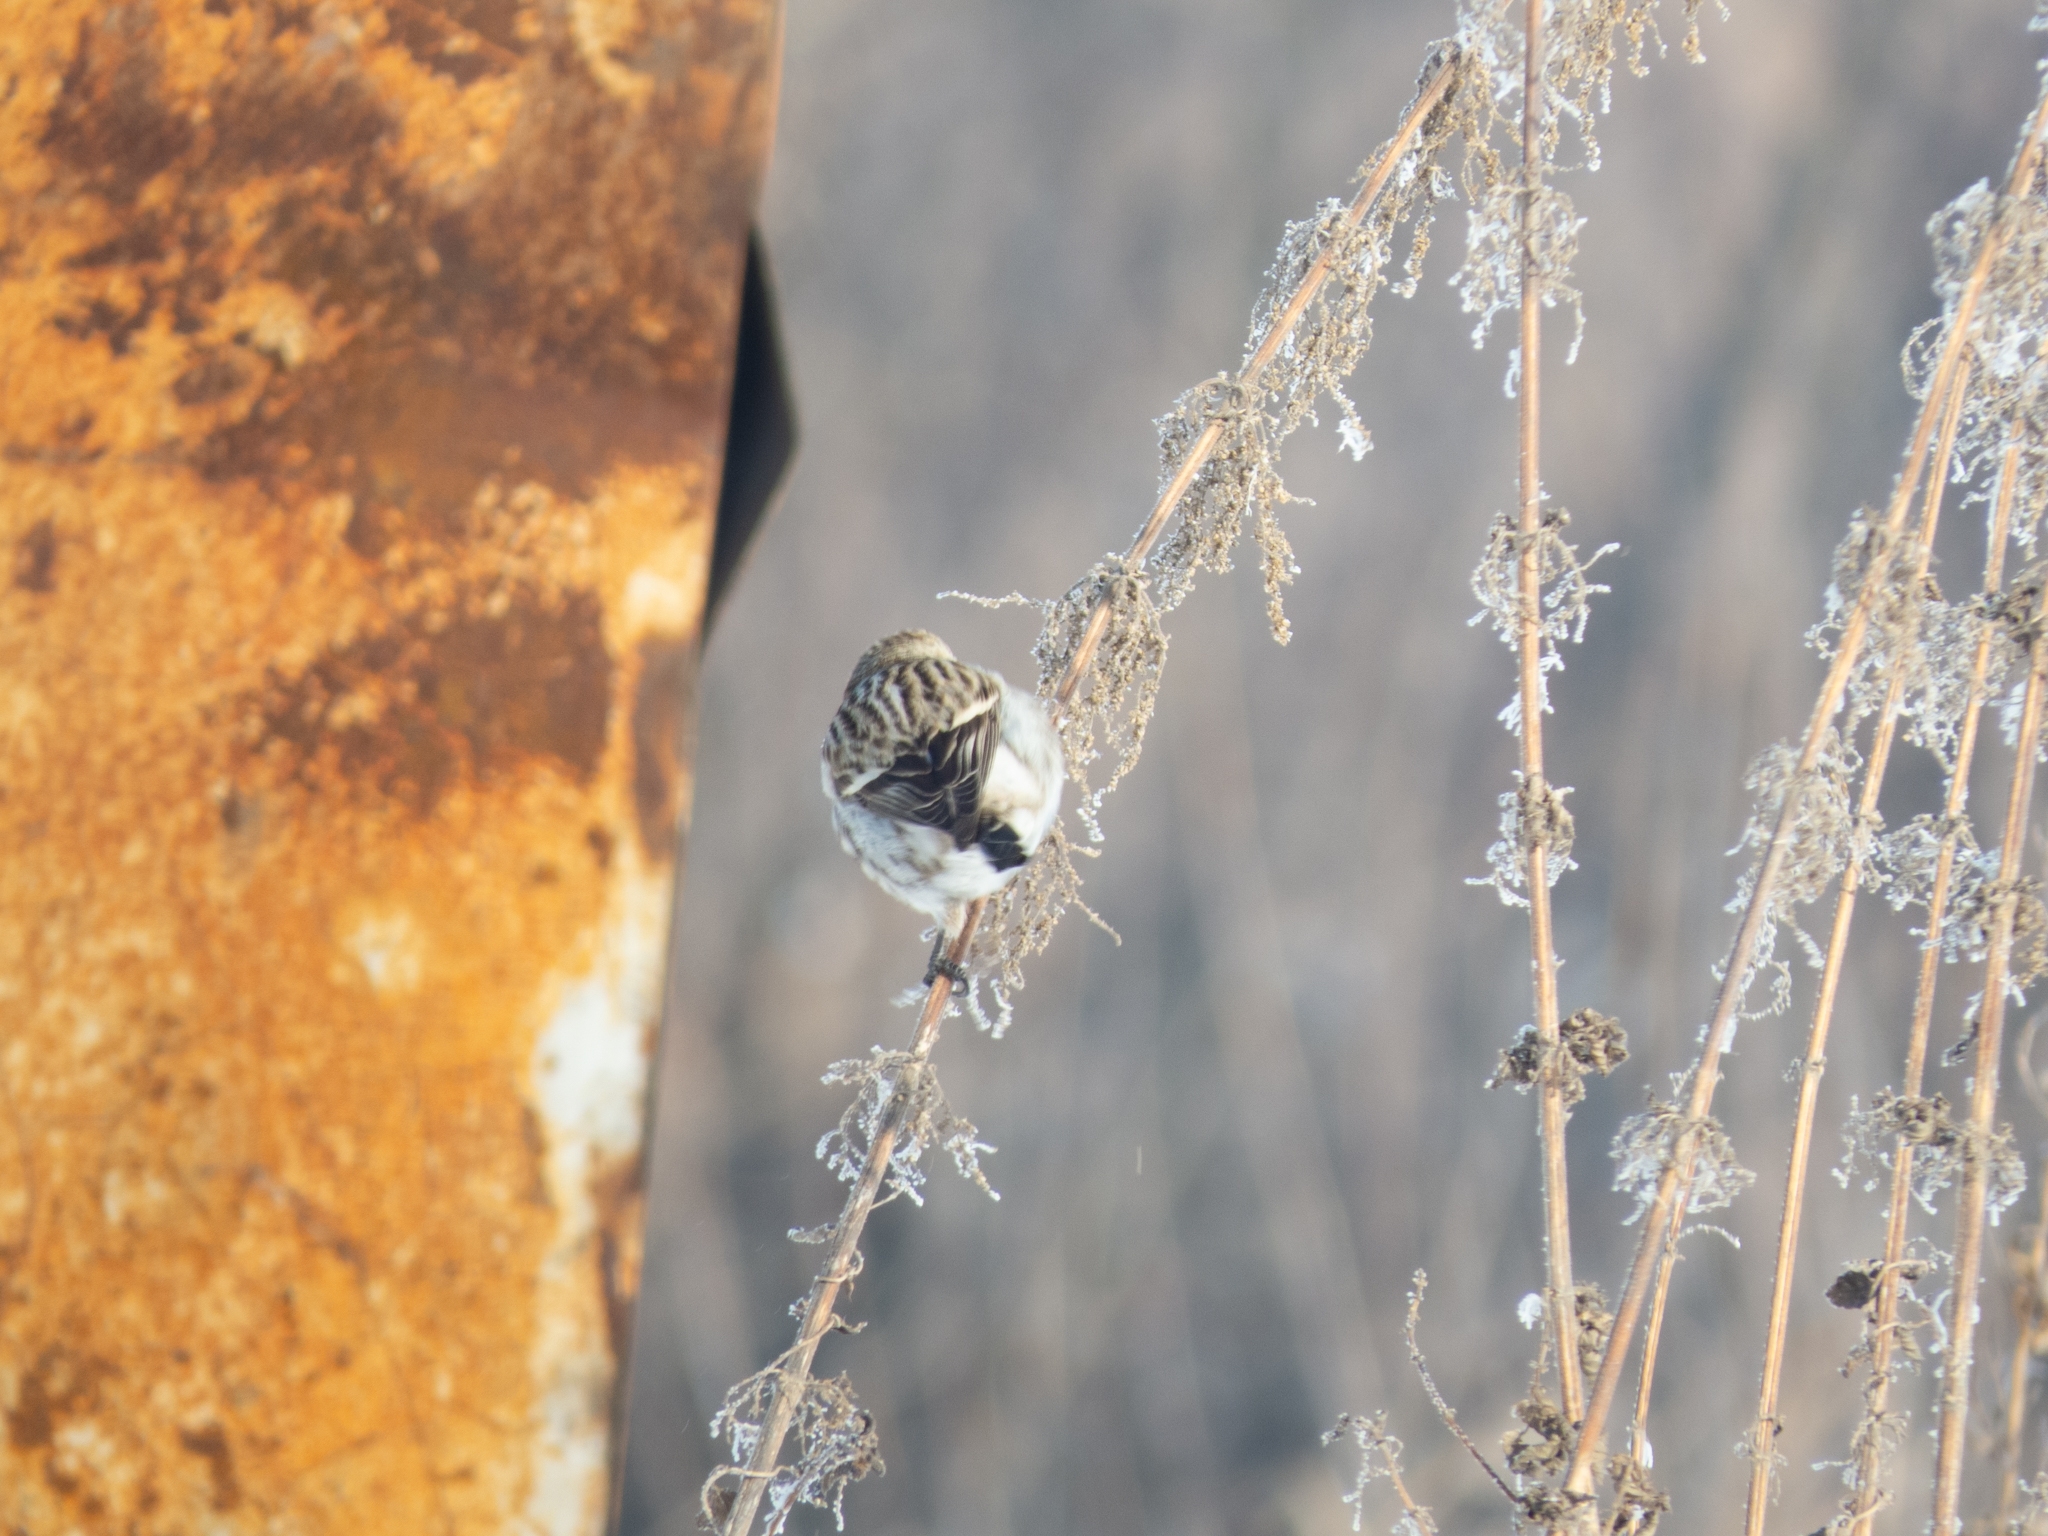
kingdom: Animalia
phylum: Chordata
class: Aves
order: Passeriformes
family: Fringillidae
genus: Acanthis
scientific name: Acanthis flammea
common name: Common redpoll
